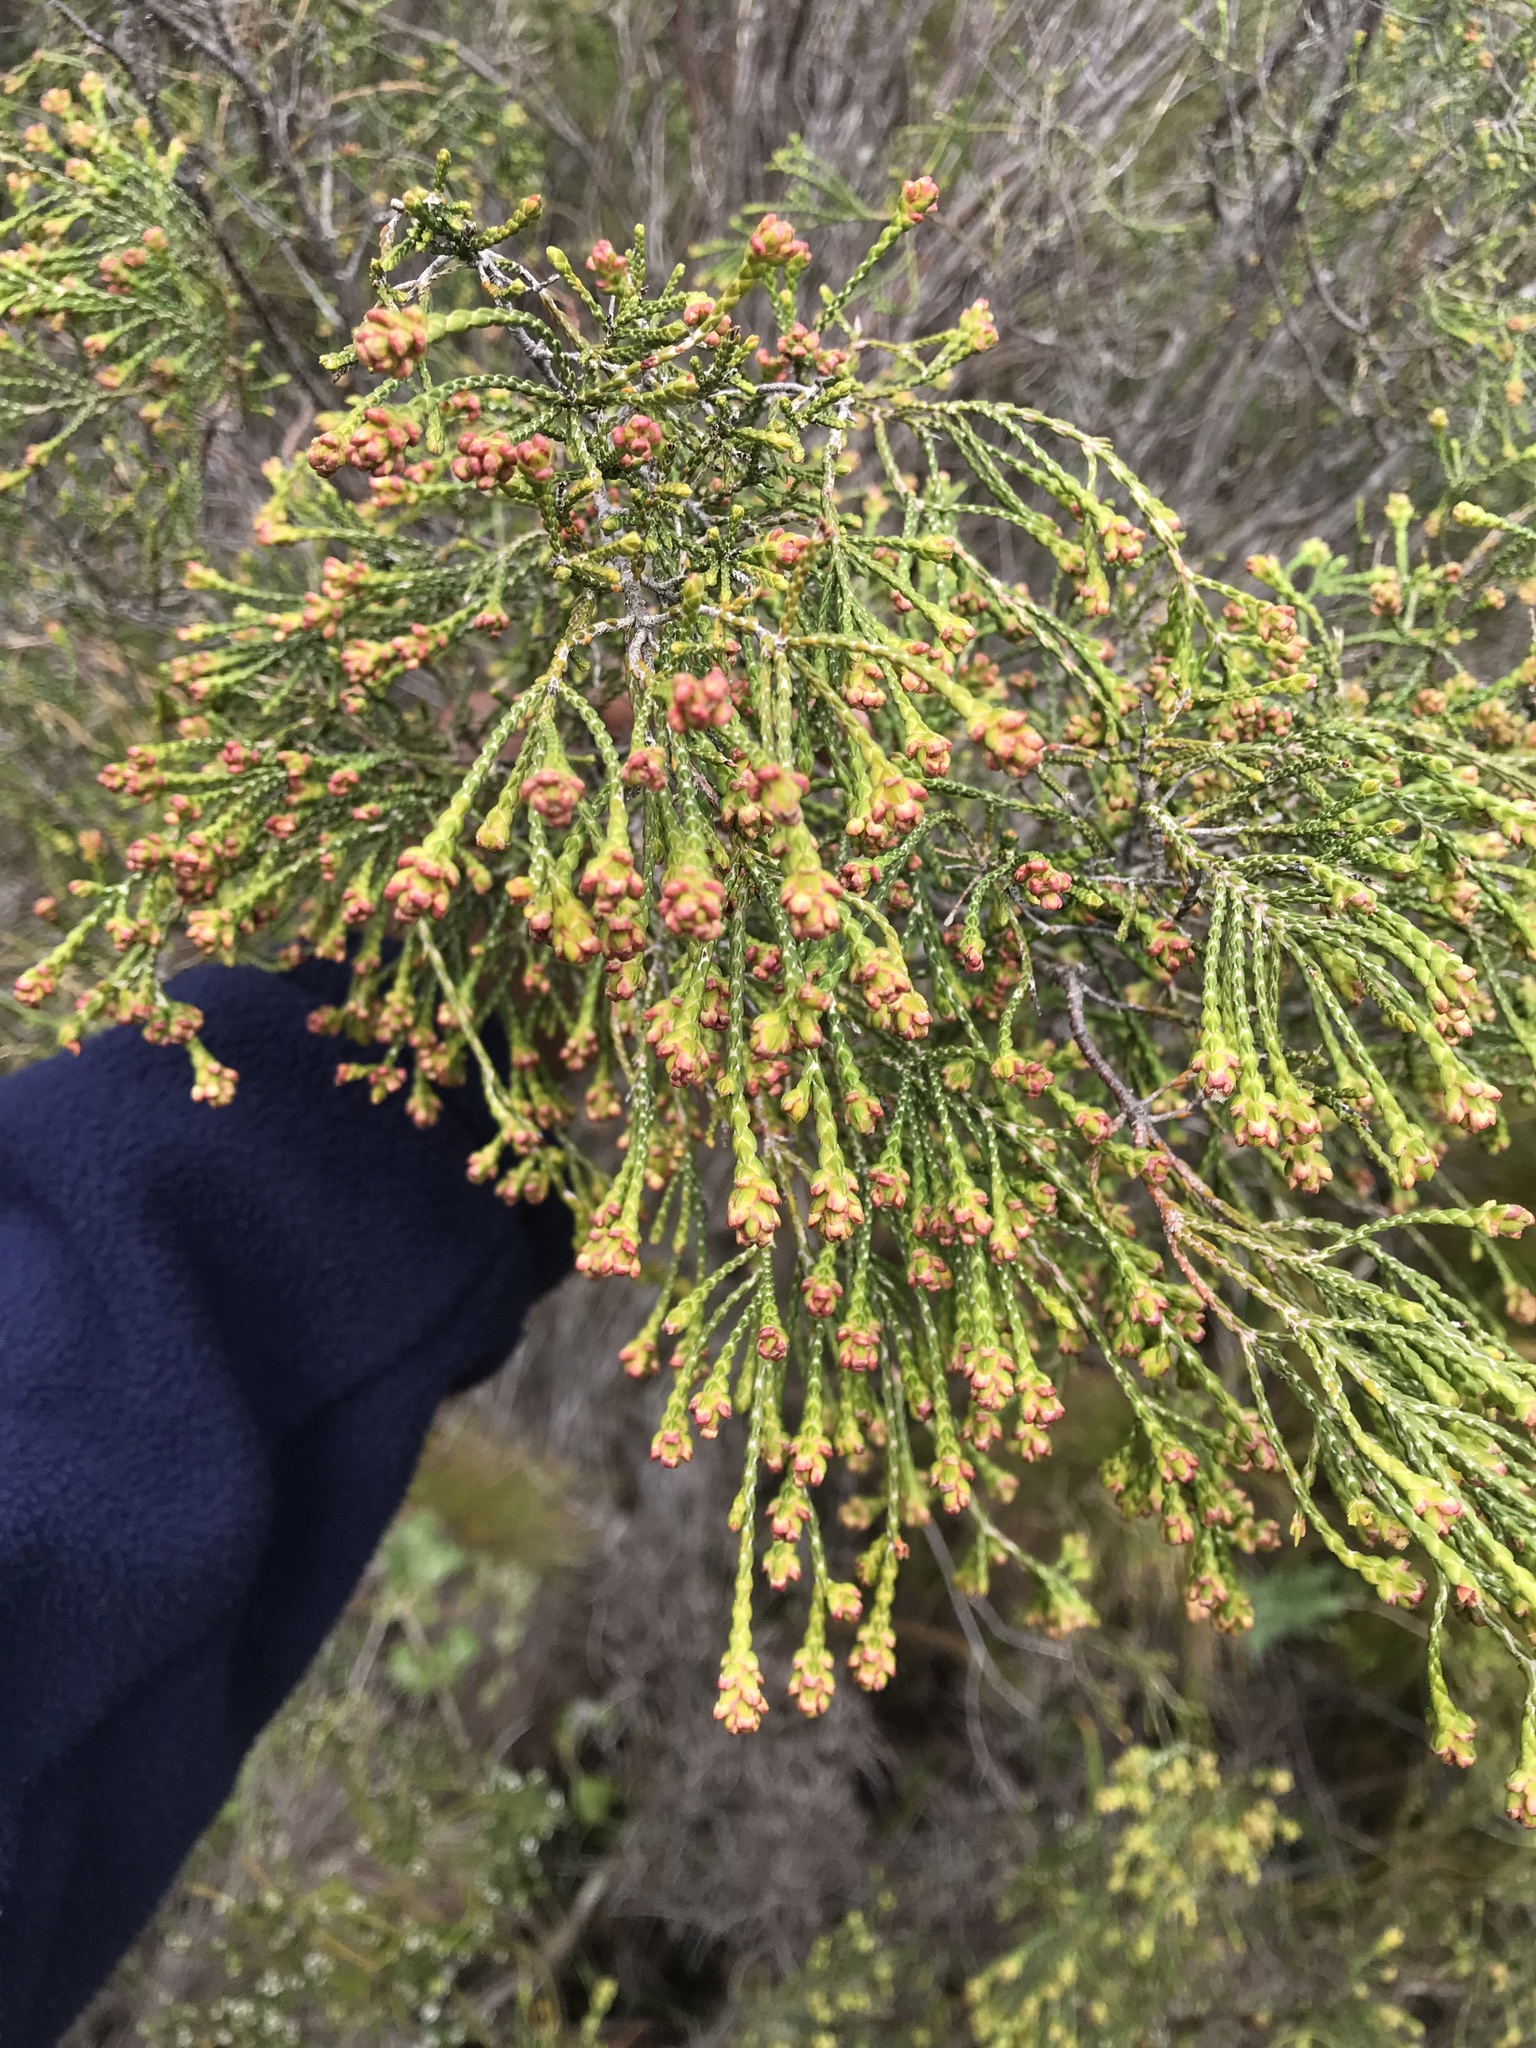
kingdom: Plantae
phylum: Tracheophyta
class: Magnoliopsida
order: Malvales
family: Thymelaeaceae
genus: Passerina
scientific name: Passerina paleacea
